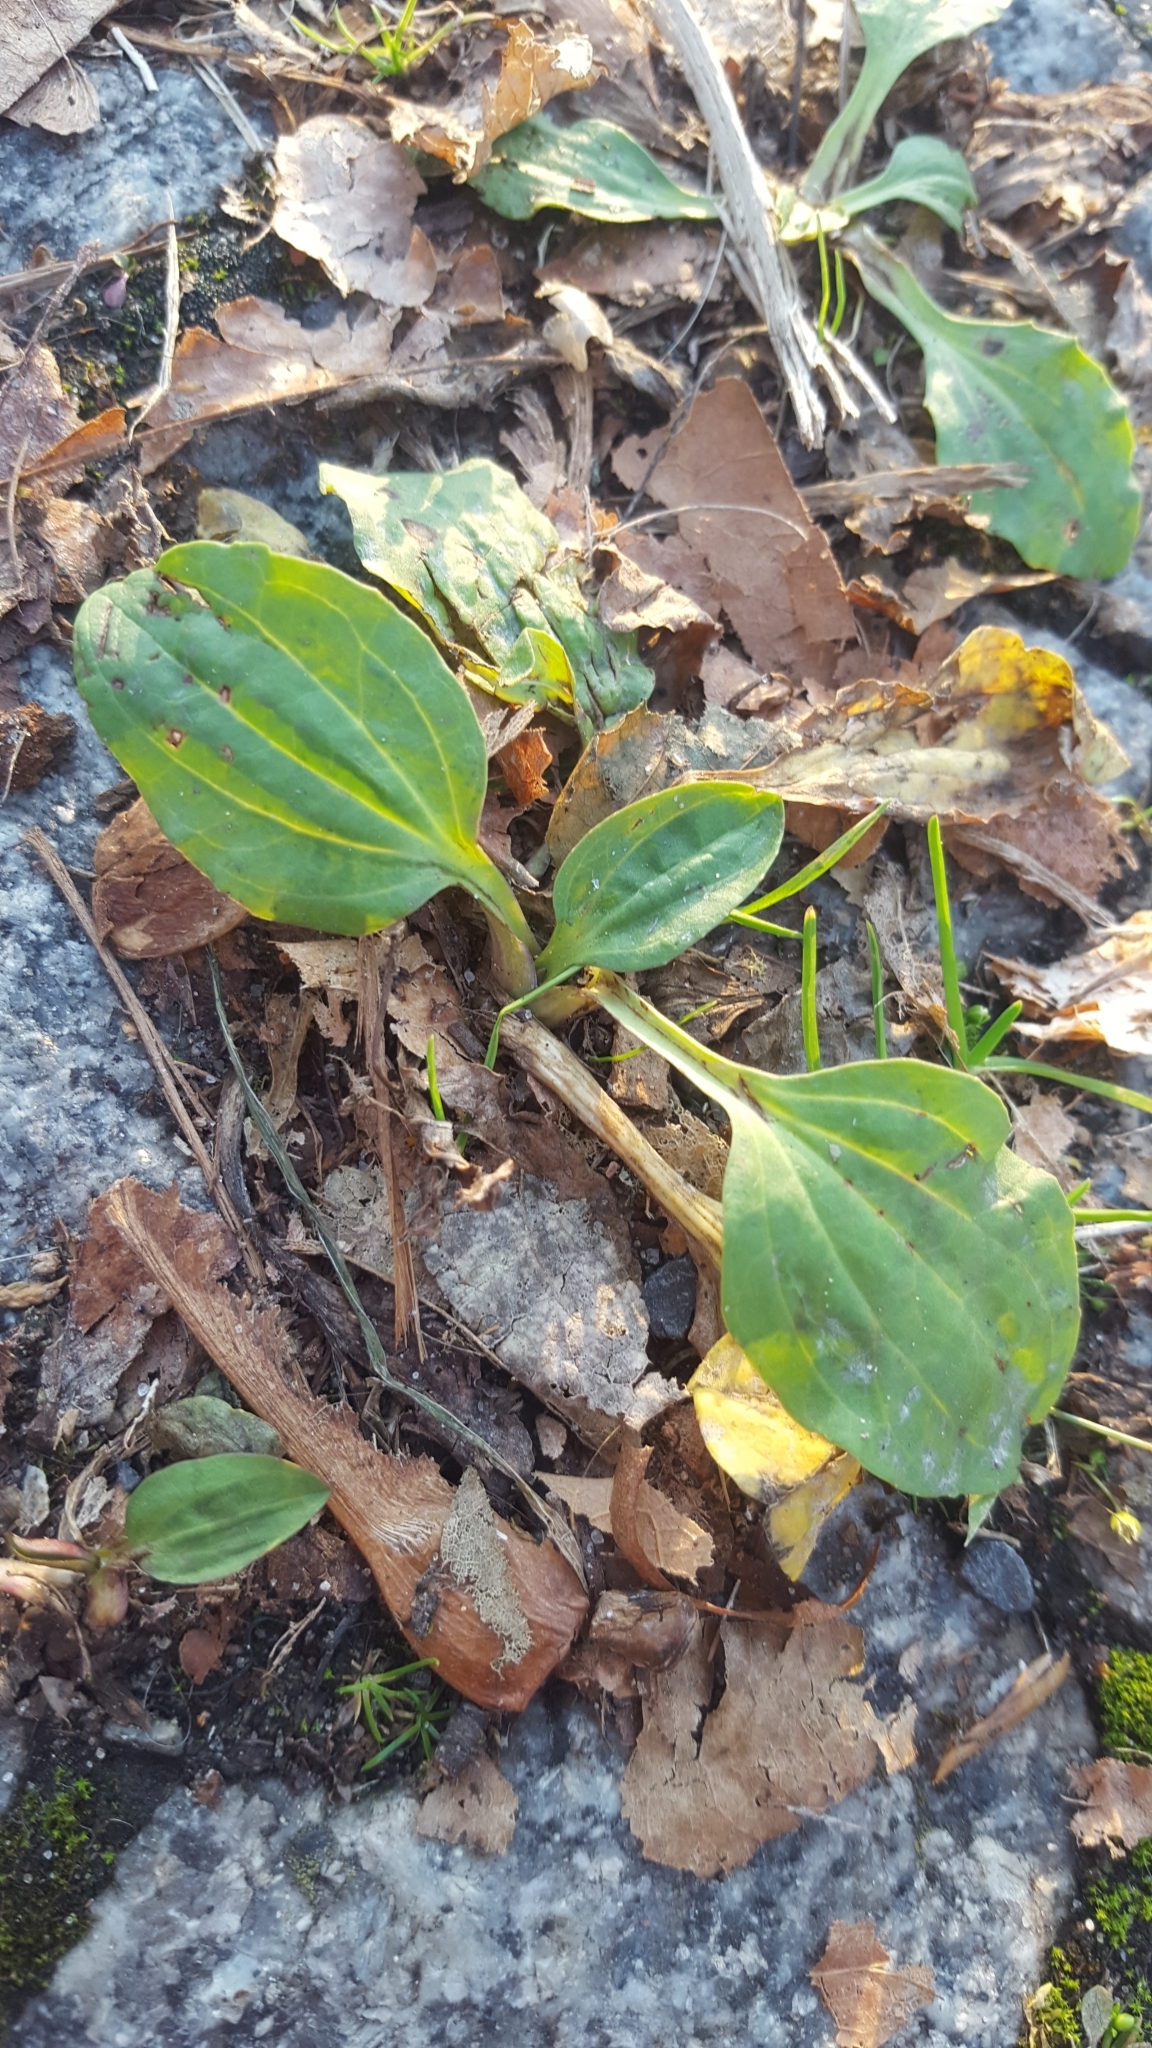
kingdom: Plantae
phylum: Tracheophyta
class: Magnoliopsida
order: Lamiales
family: Plantaginaceae
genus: Plantago
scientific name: Plantago major
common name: Common plantain
